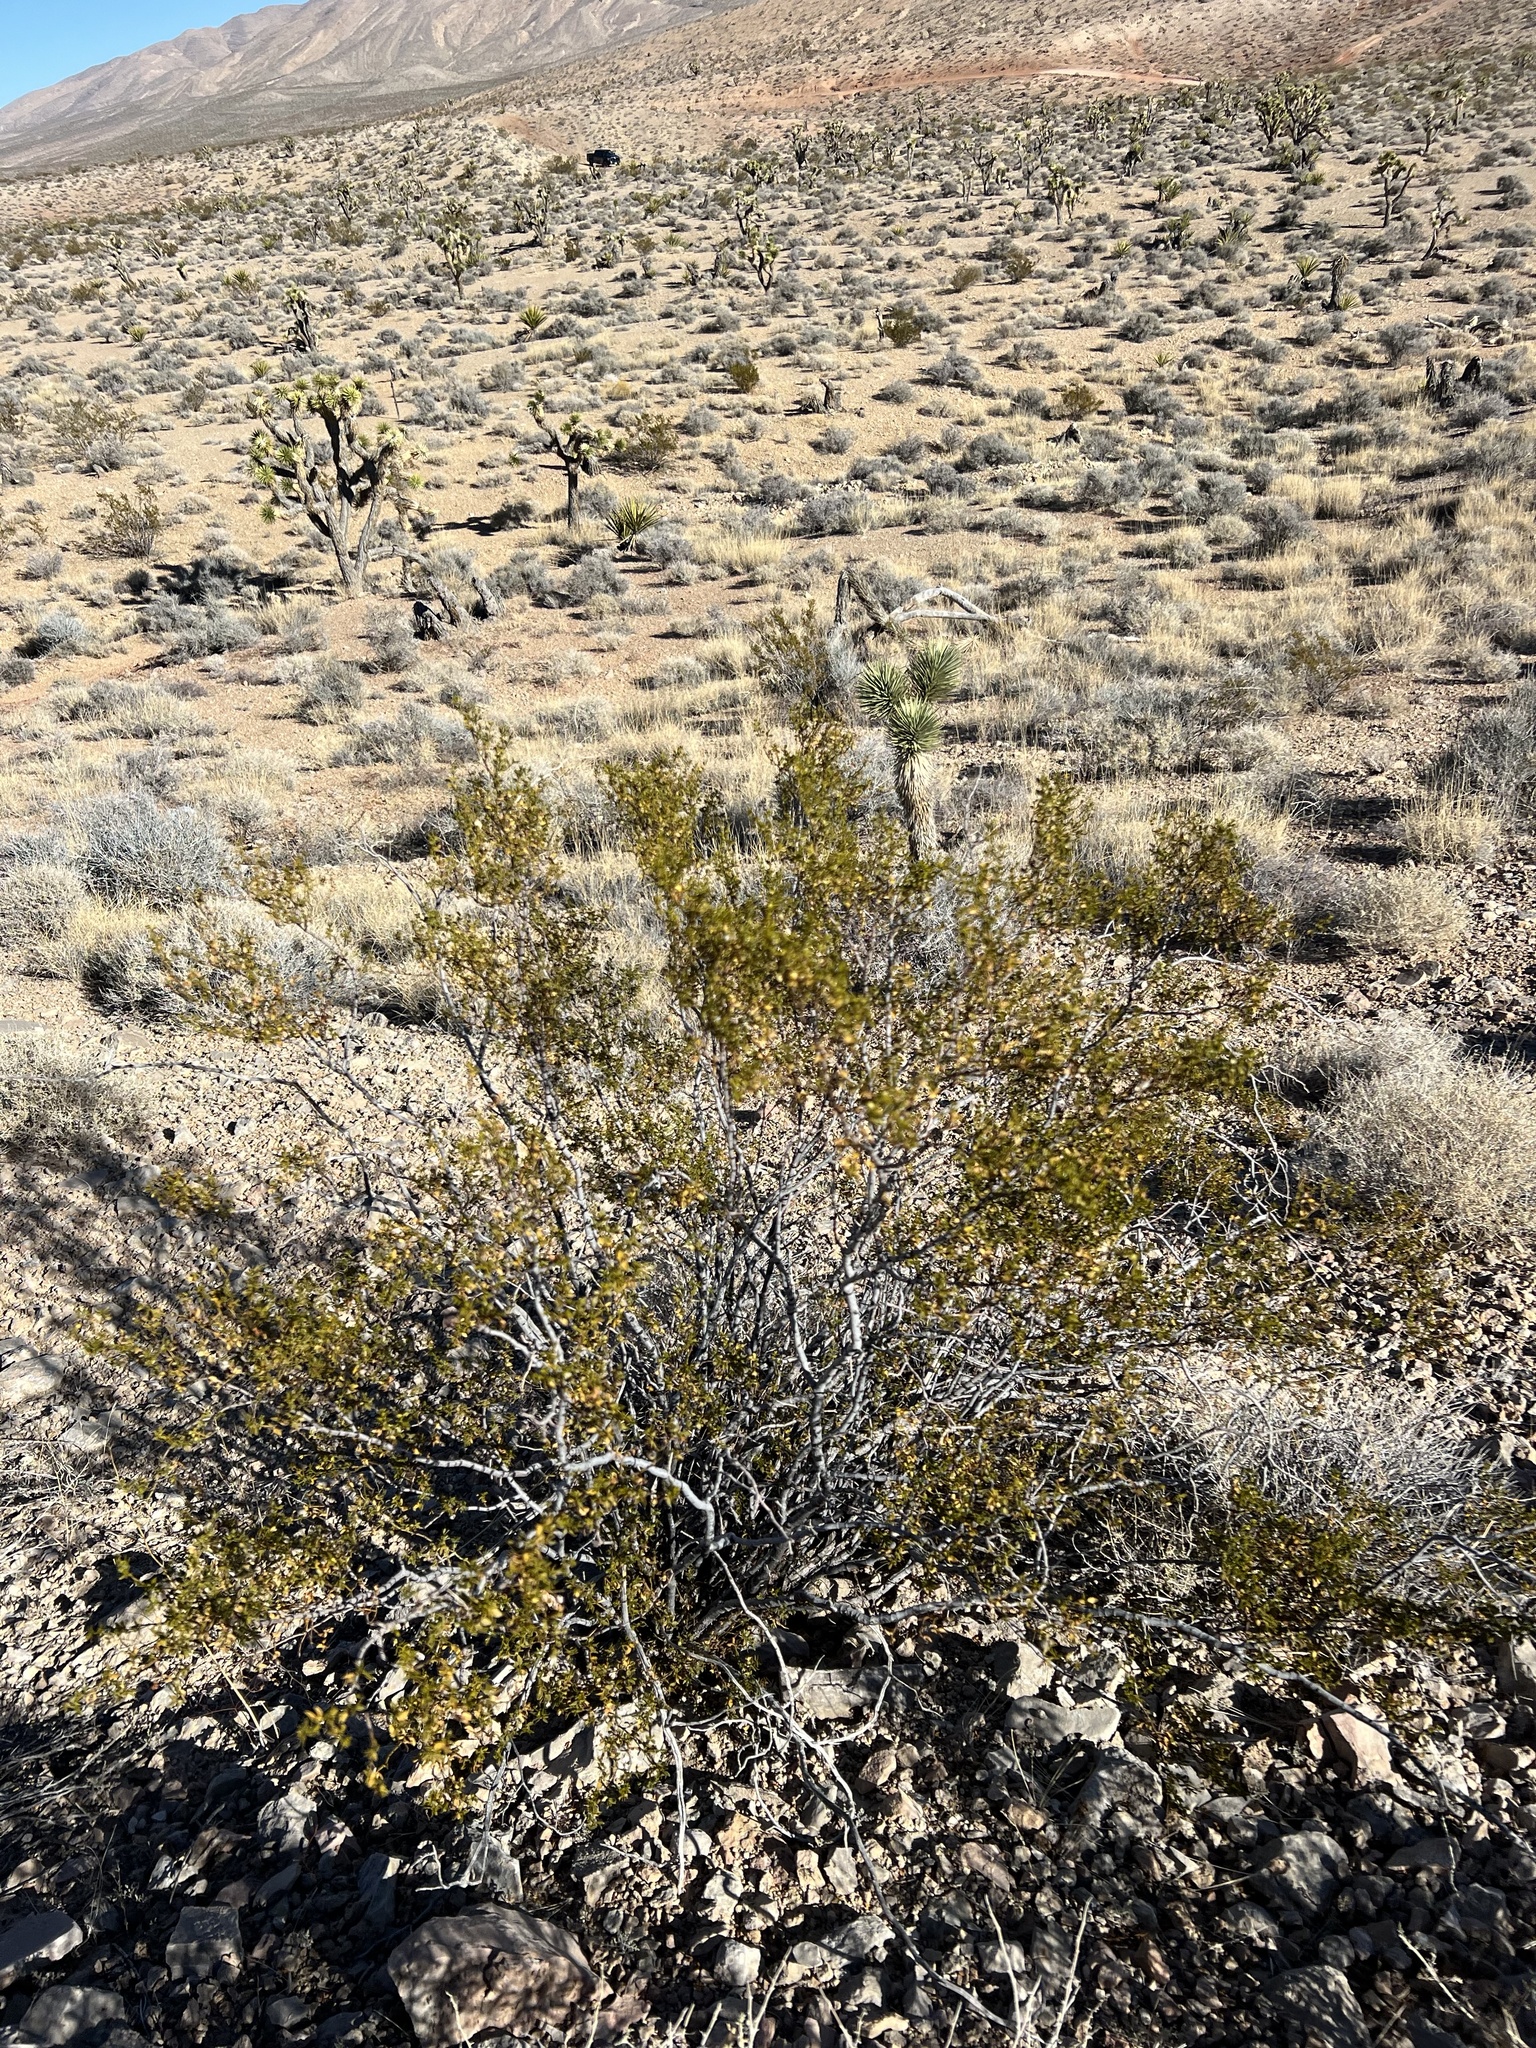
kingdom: Plantae
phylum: Tracheophyta
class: Magnoliopsida
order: Zygophyllales
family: Zygophyllaceae
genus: Larrea
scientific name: Larrea tridentata
